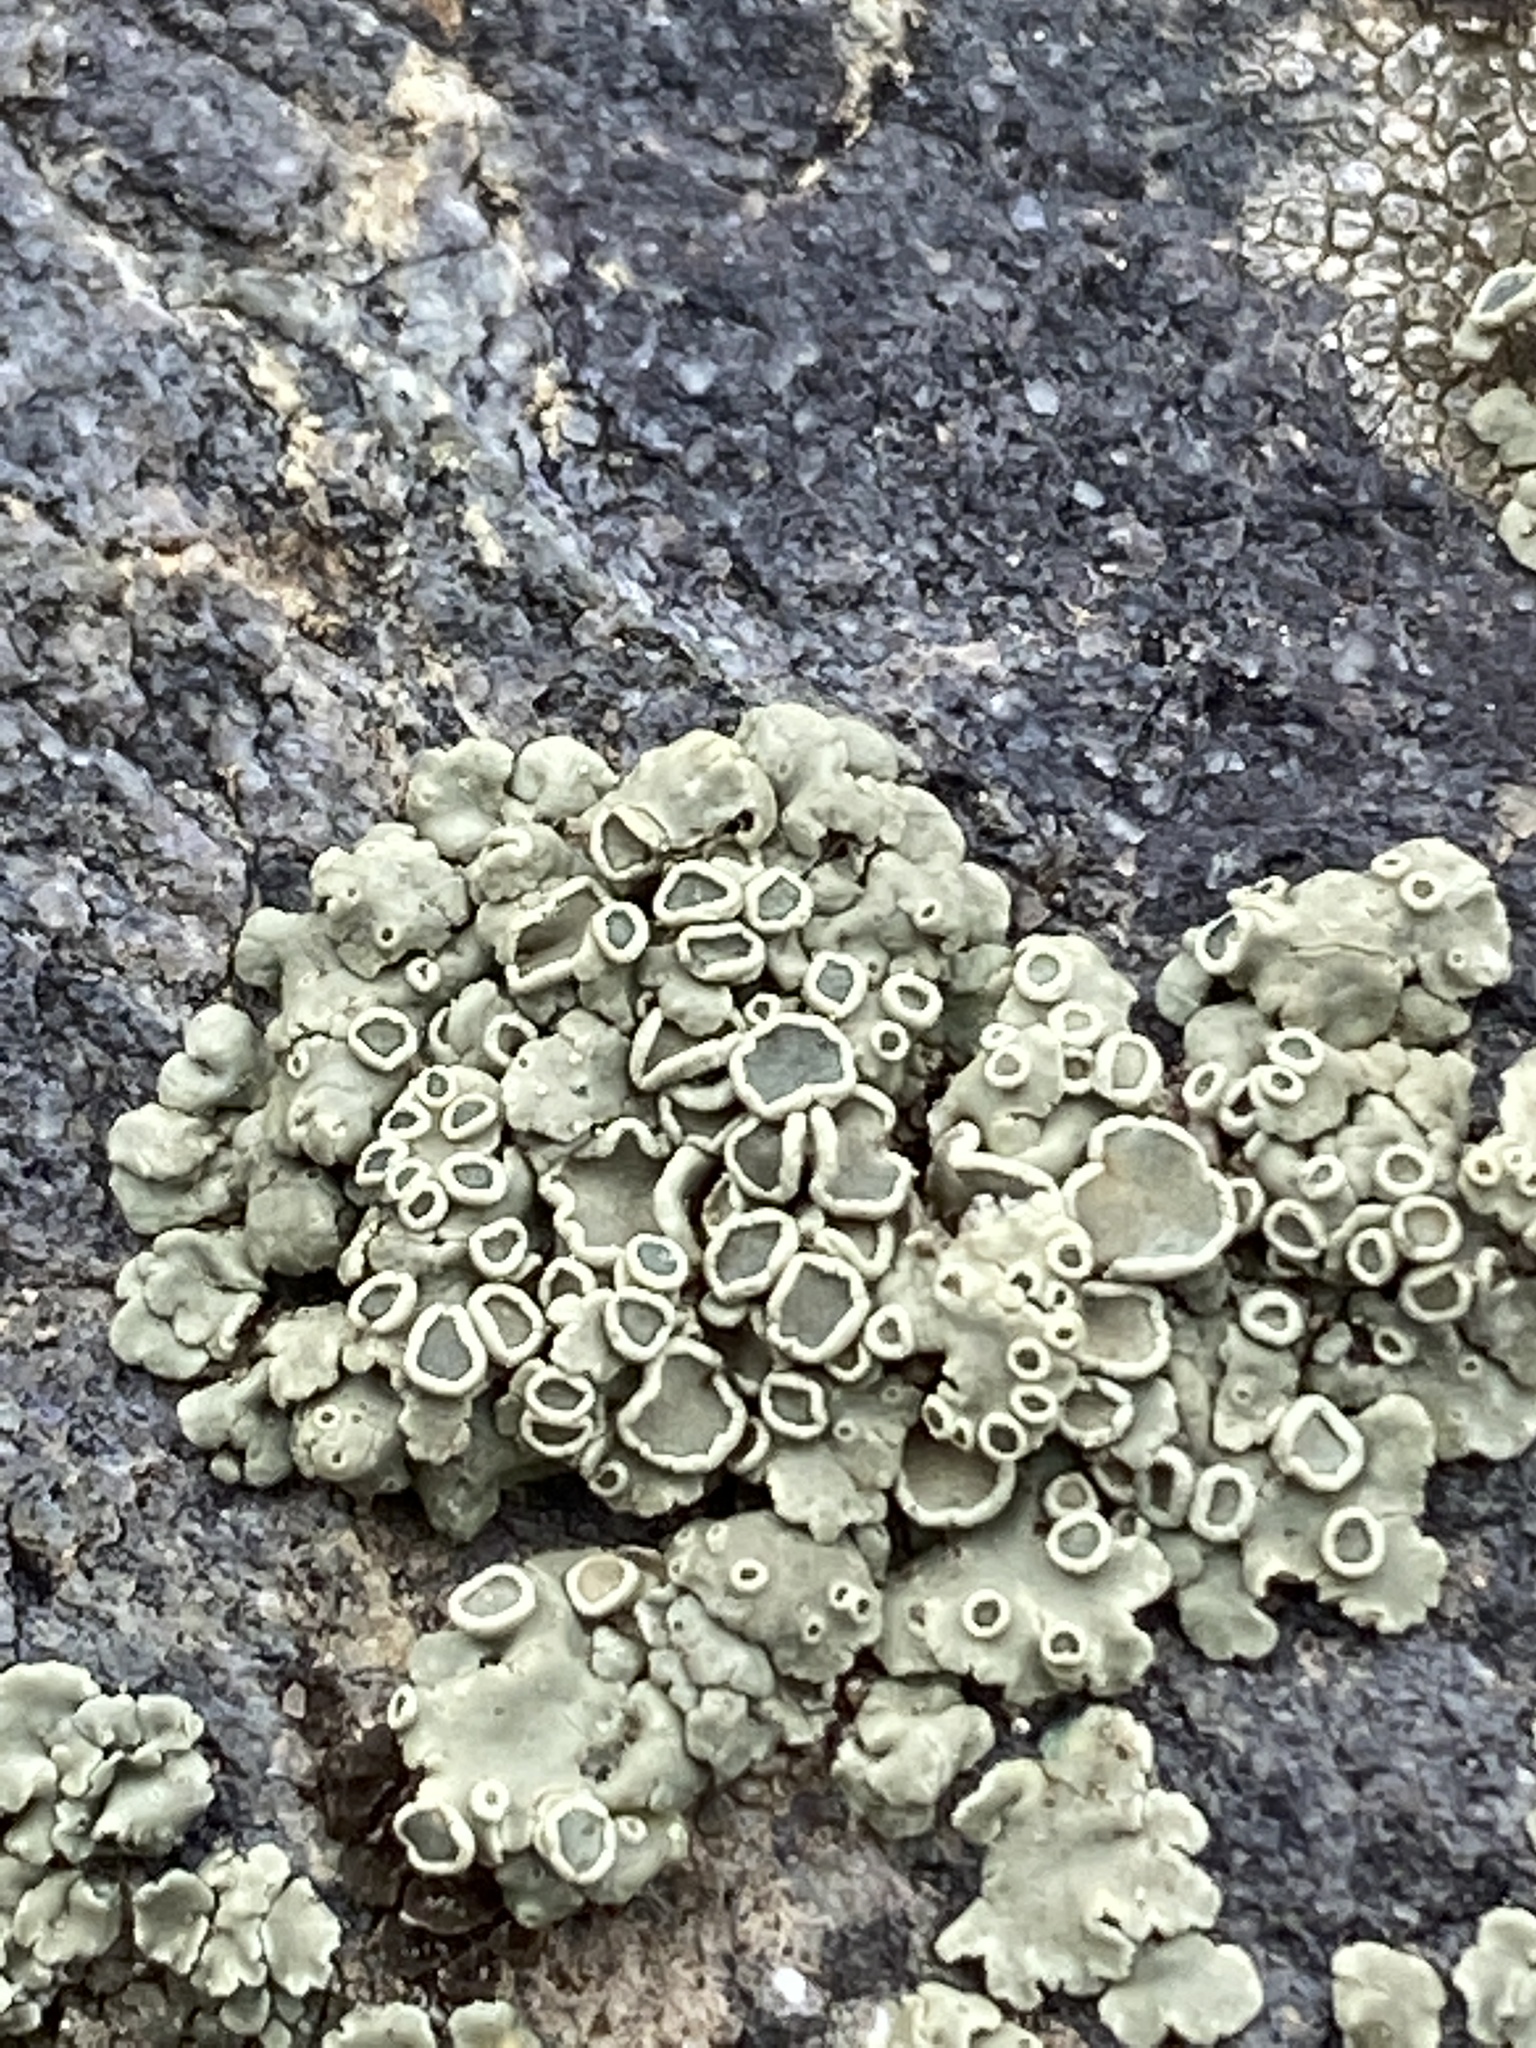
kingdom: Fungi
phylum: Ascomycota
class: Lecanoromycetes
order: Lecanorales
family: Lecanoraceae
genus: Rhizoplaca
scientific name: Rhizoplaca melanophthalma
